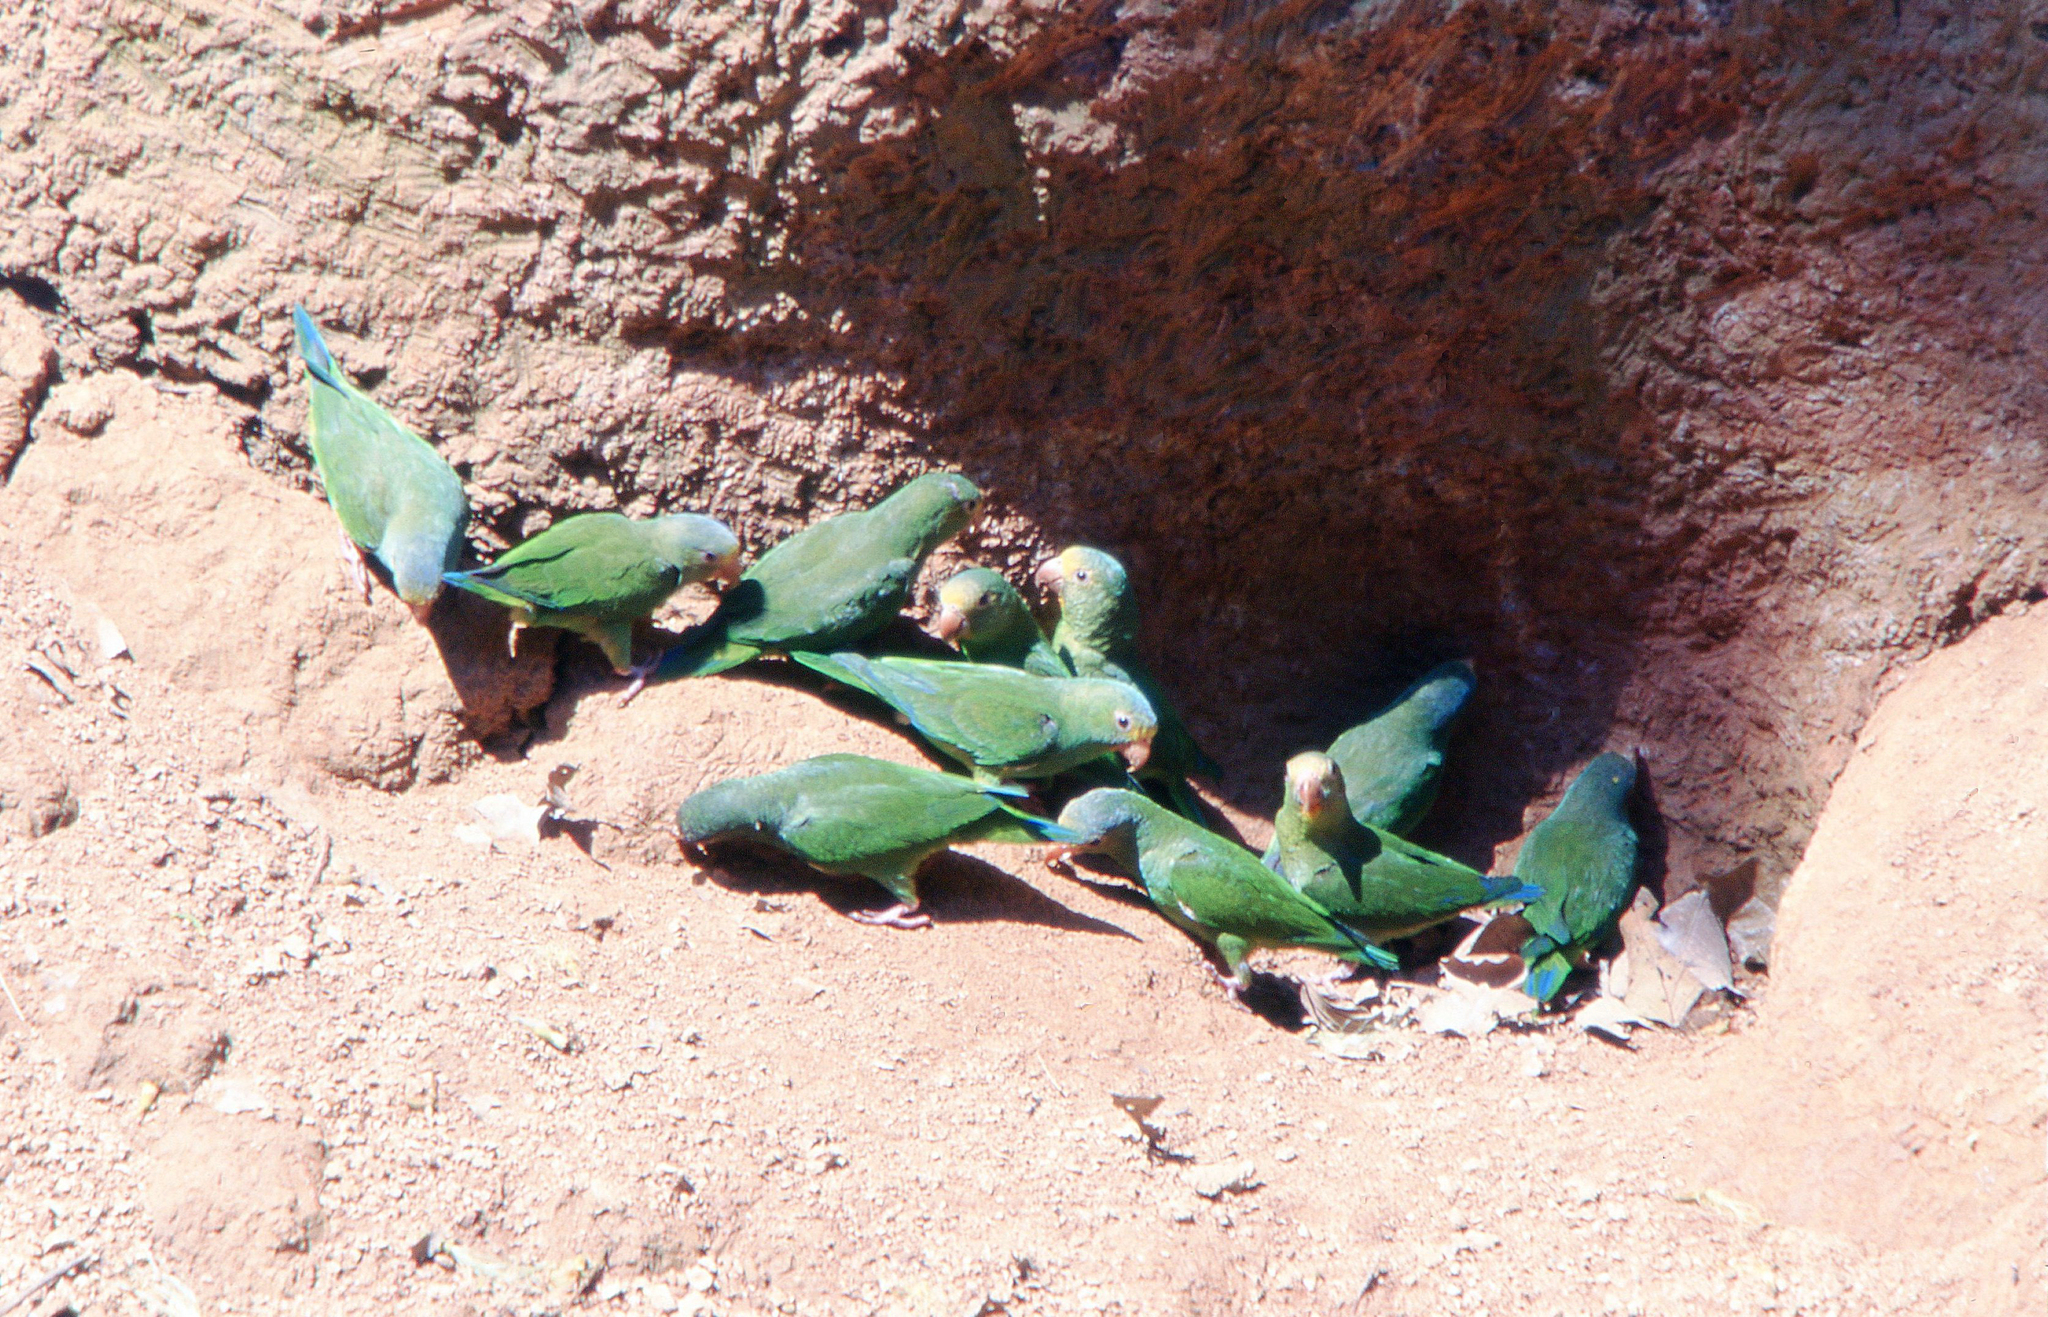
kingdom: Animalia
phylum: Chordata
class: Aves
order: Psittaciformes
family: Psittacidae
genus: Brotogeris
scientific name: Brotogeris cyanoptera
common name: Cobalt-winged parakeet
